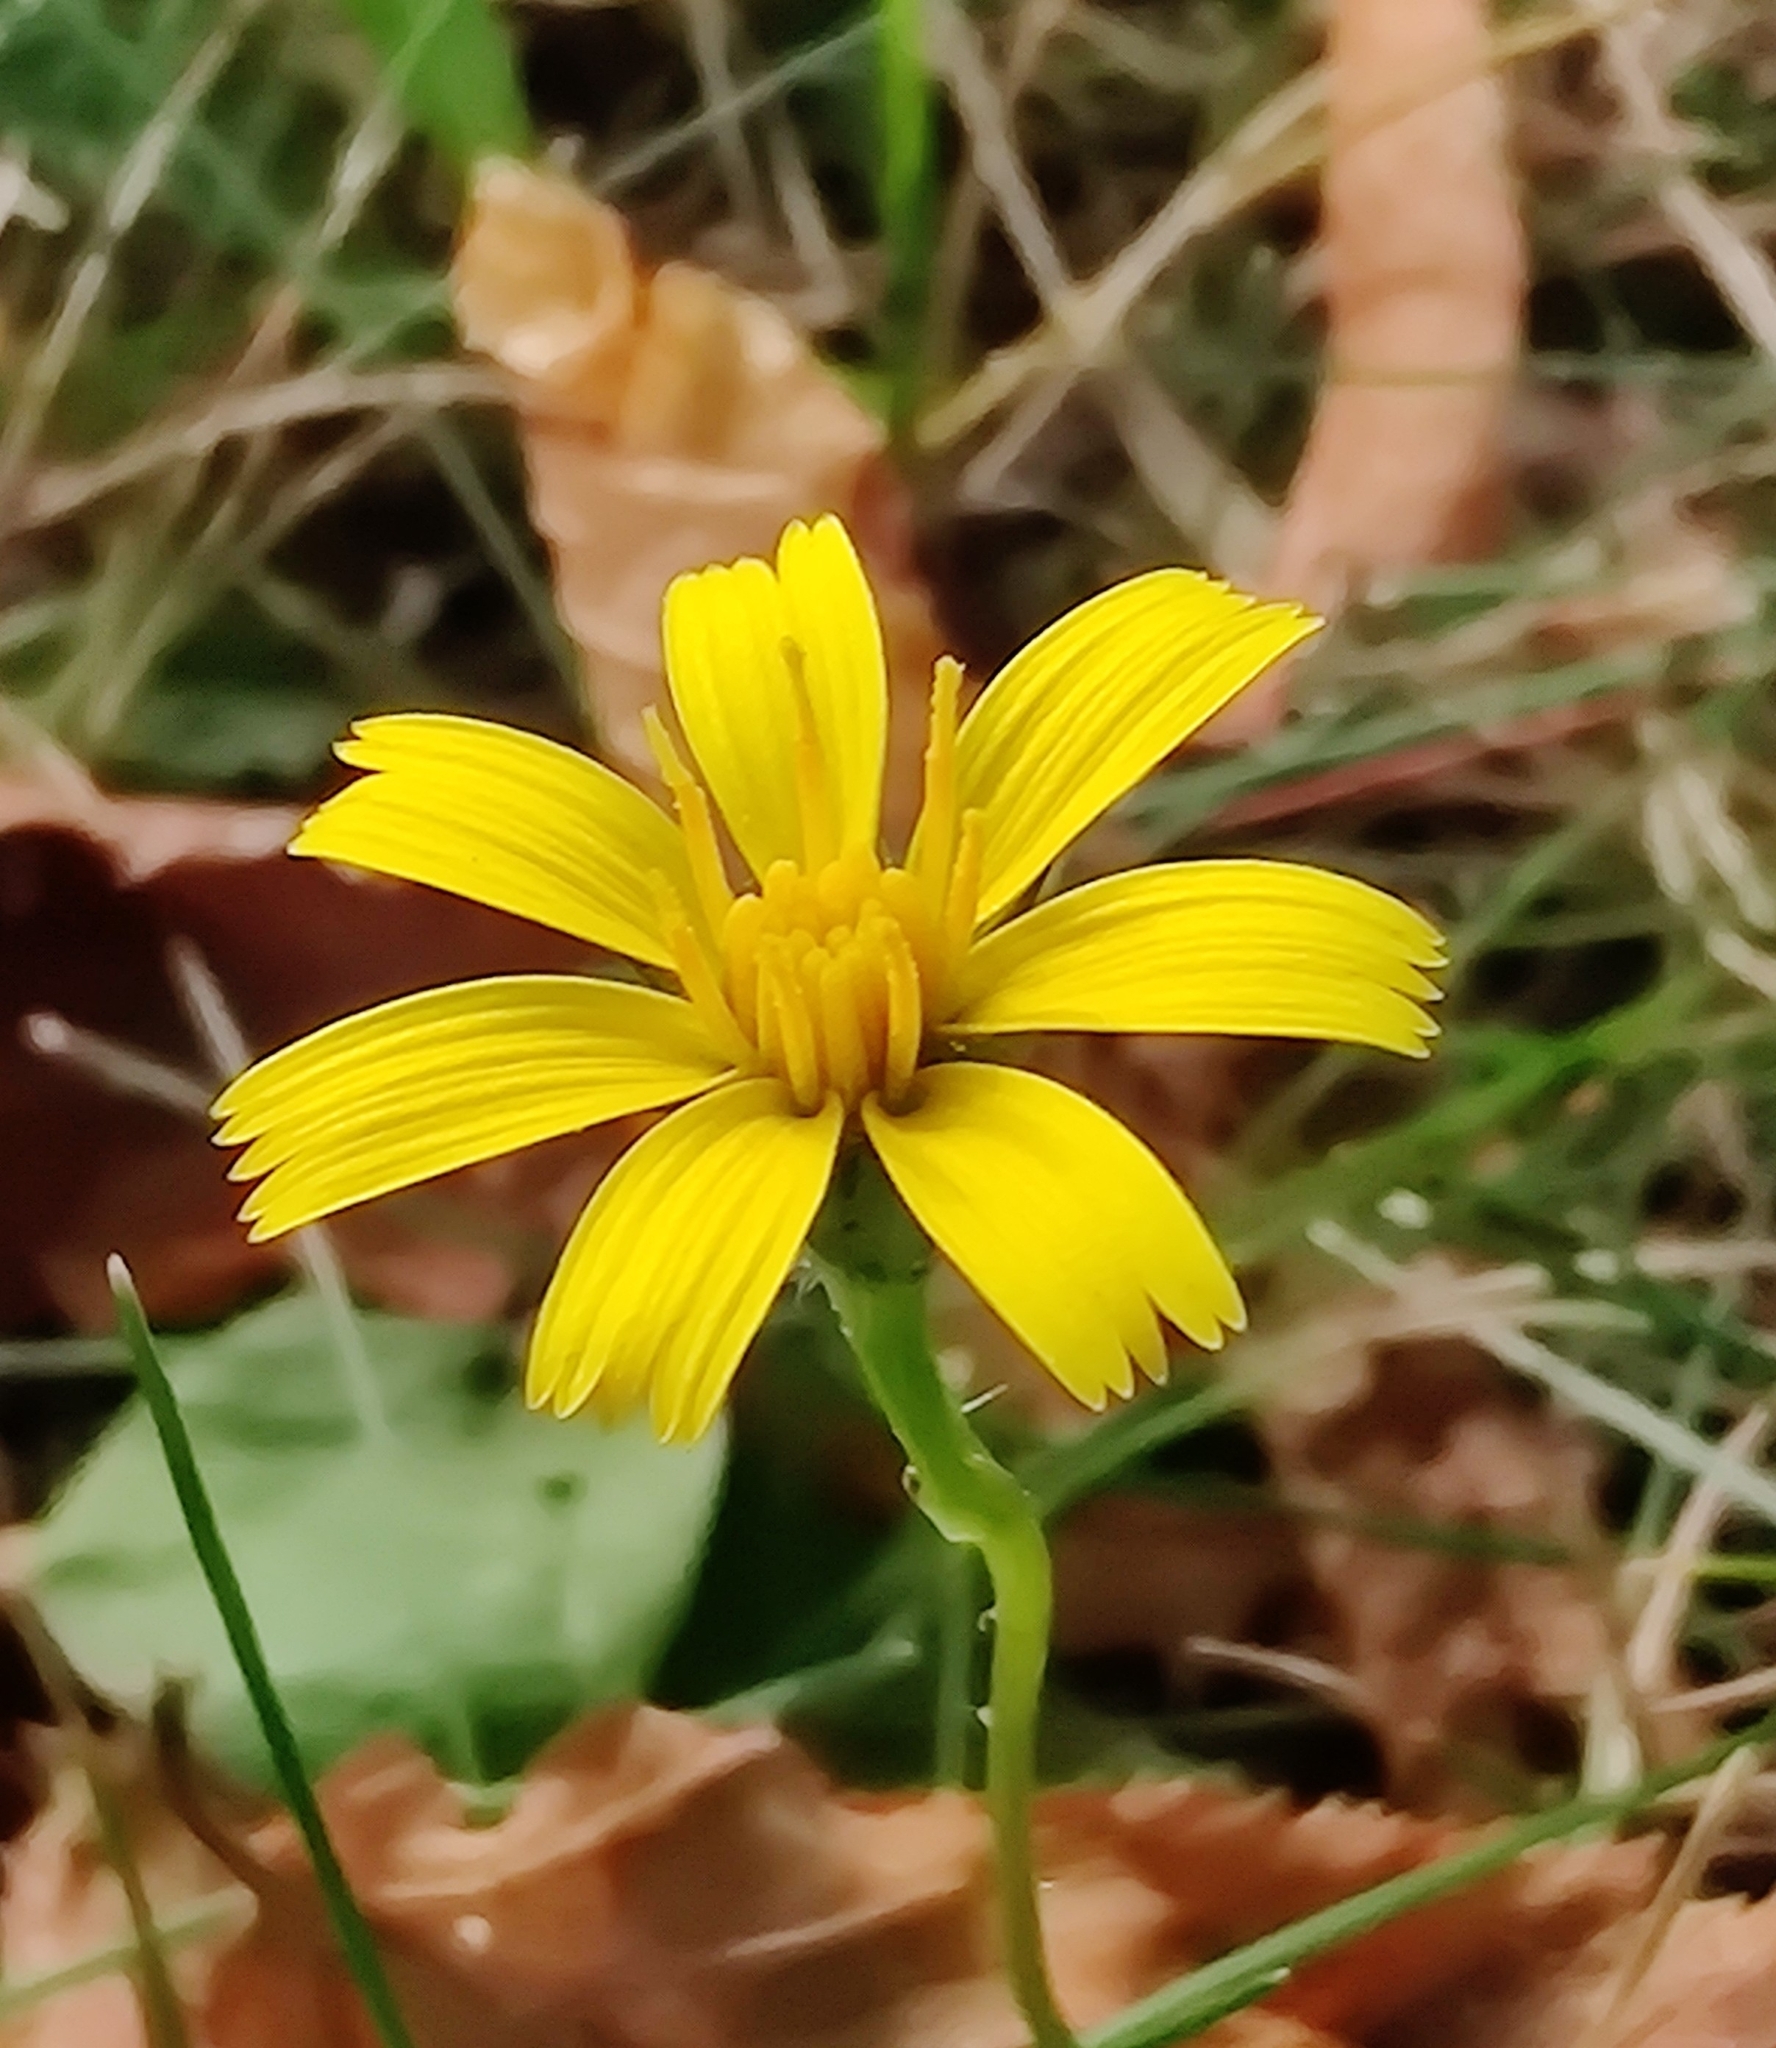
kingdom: Plantae
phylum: Tracheophyta
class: Magnoliopsida
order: Asterales
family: Asteraceae
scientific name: Asteraceae
